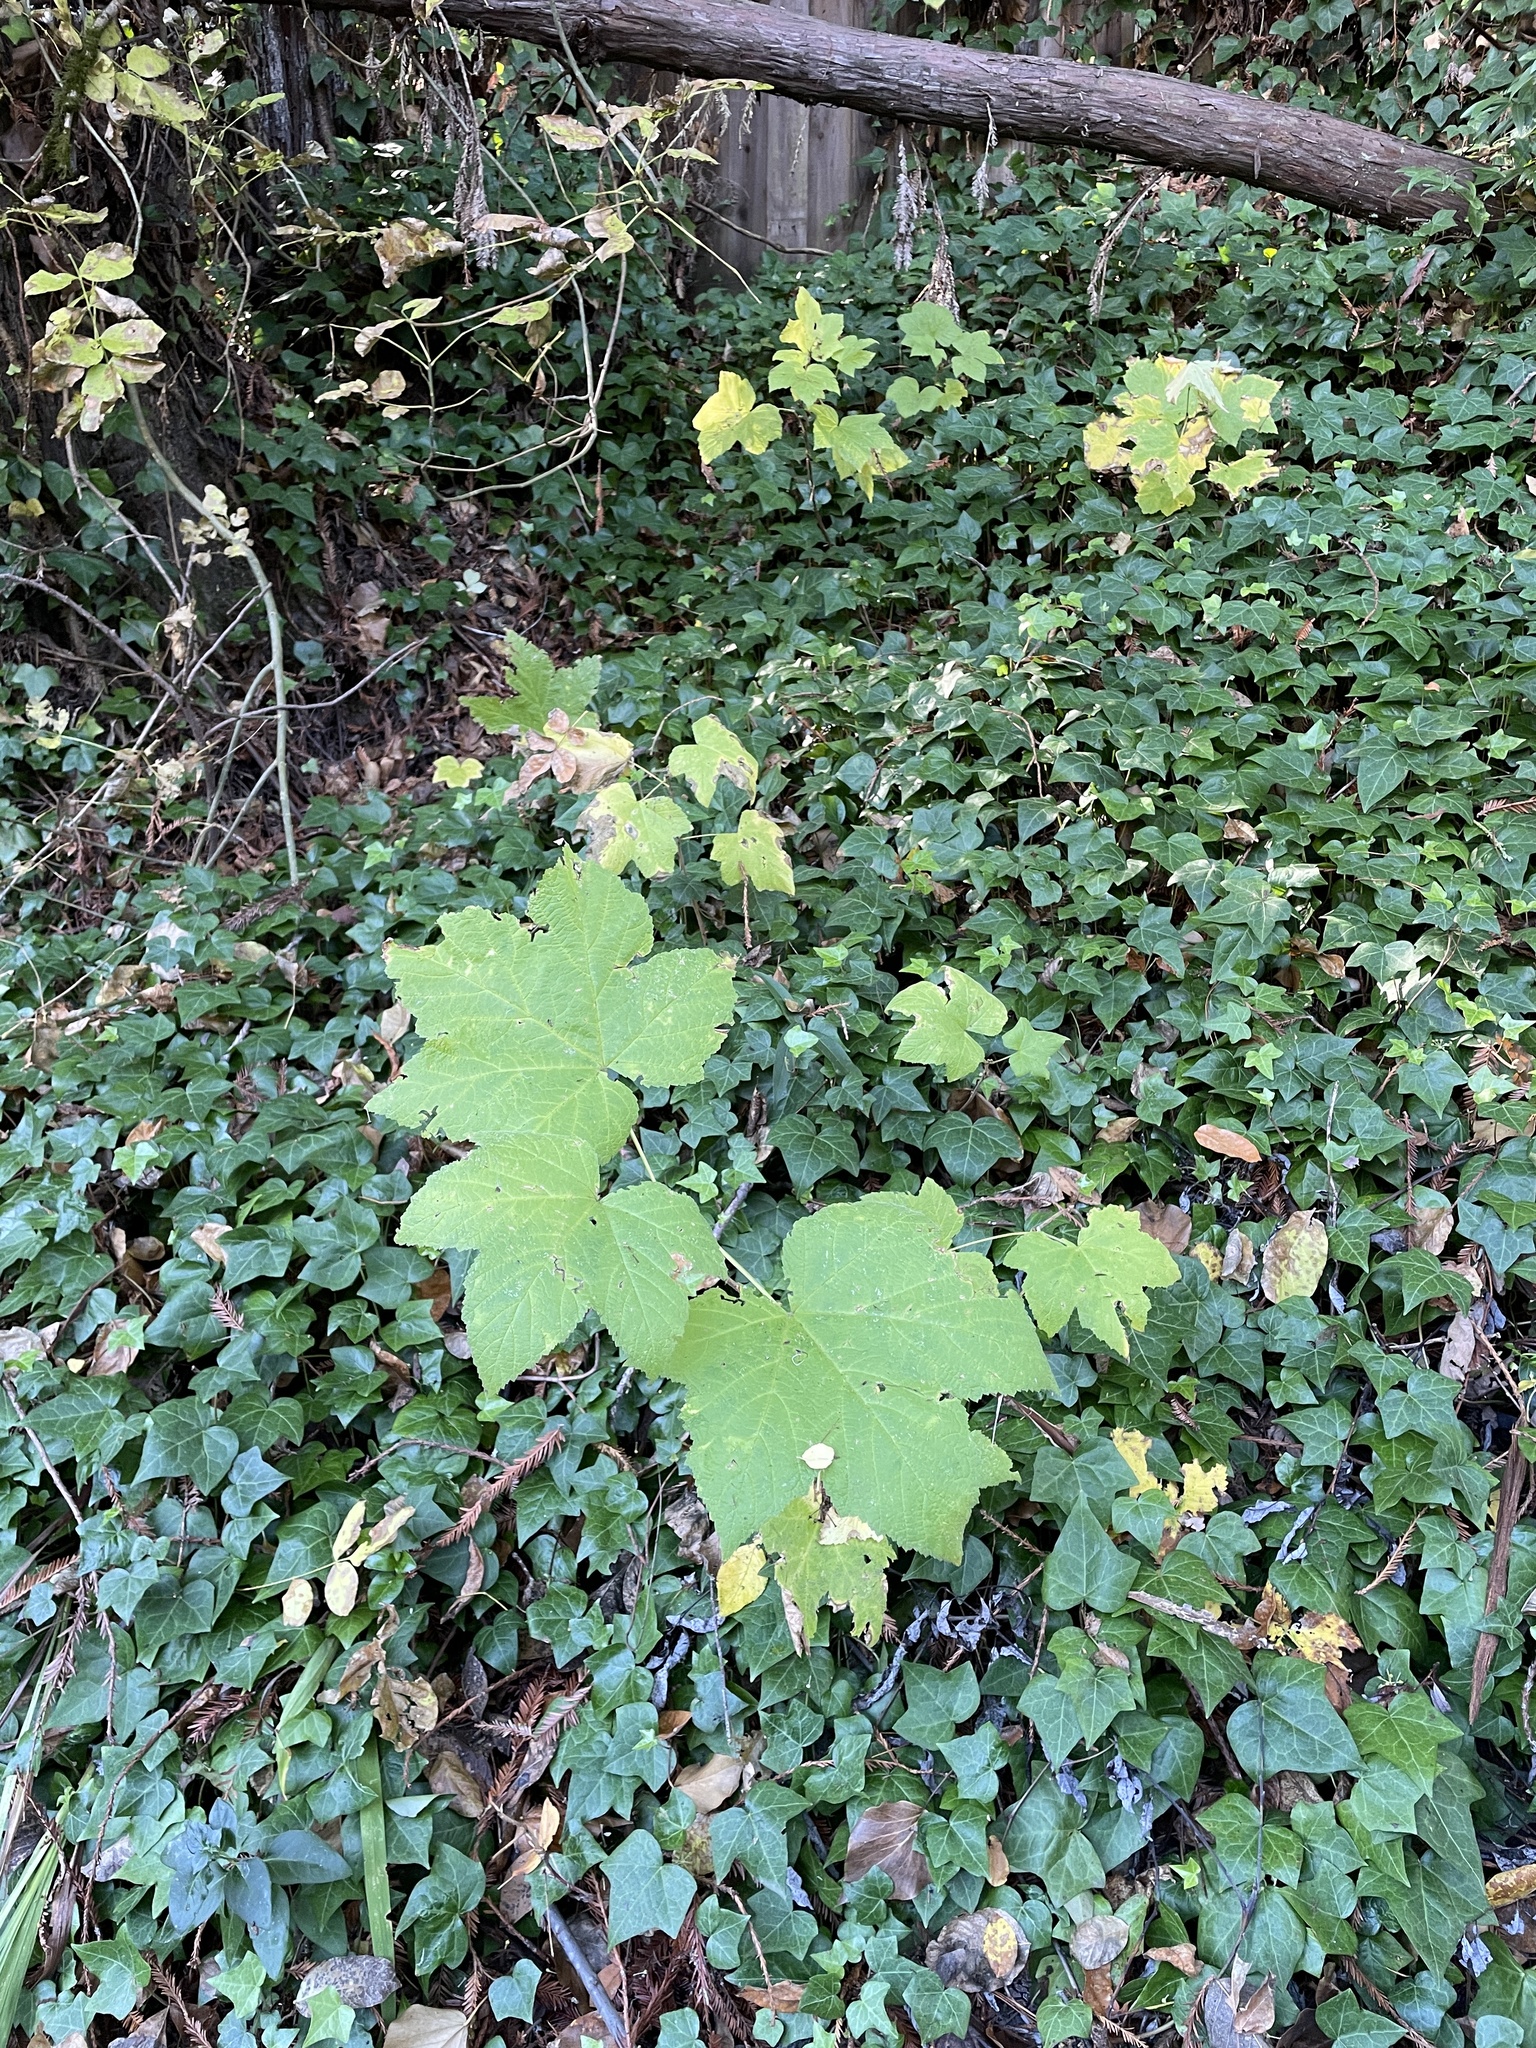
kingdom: Plantae
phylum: Tracheophyta
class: Magnoliopsida
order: Rosales
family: Rosaceae
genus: Rubus
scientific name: Rubus parviflorus
